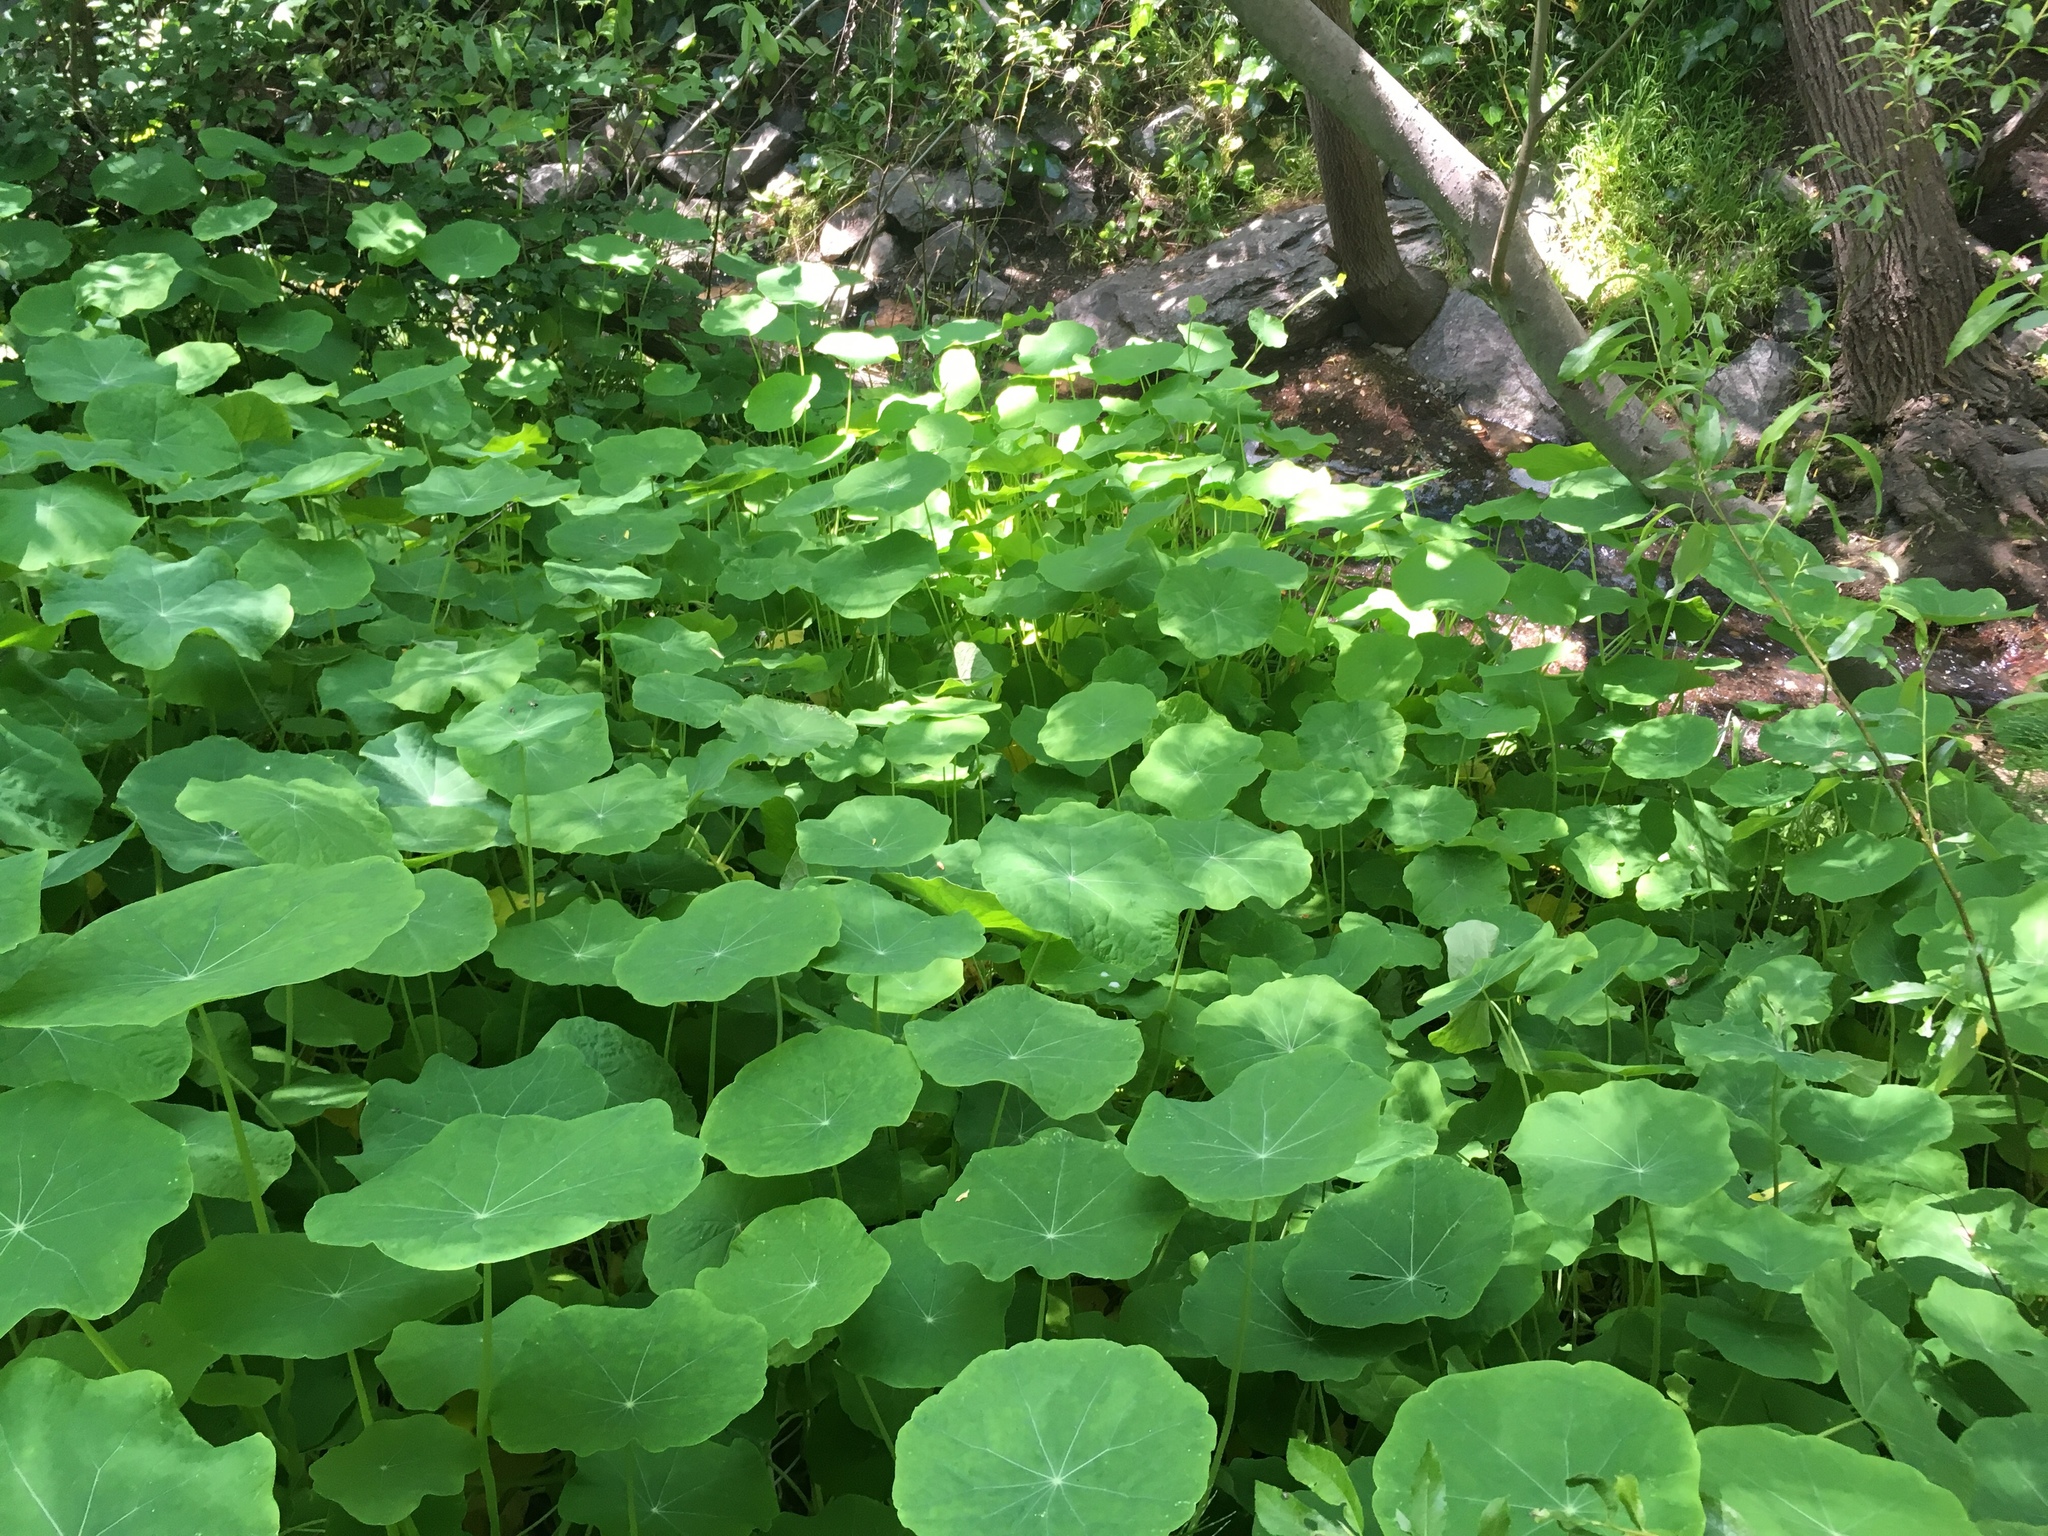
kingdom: Plantae
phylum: Tracheophyta
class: Magnoliopsida
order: Brassicales
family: Tropaeolaceae
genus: Tropaeolum
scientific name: Tropaeolum majus
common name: Nasturtium
